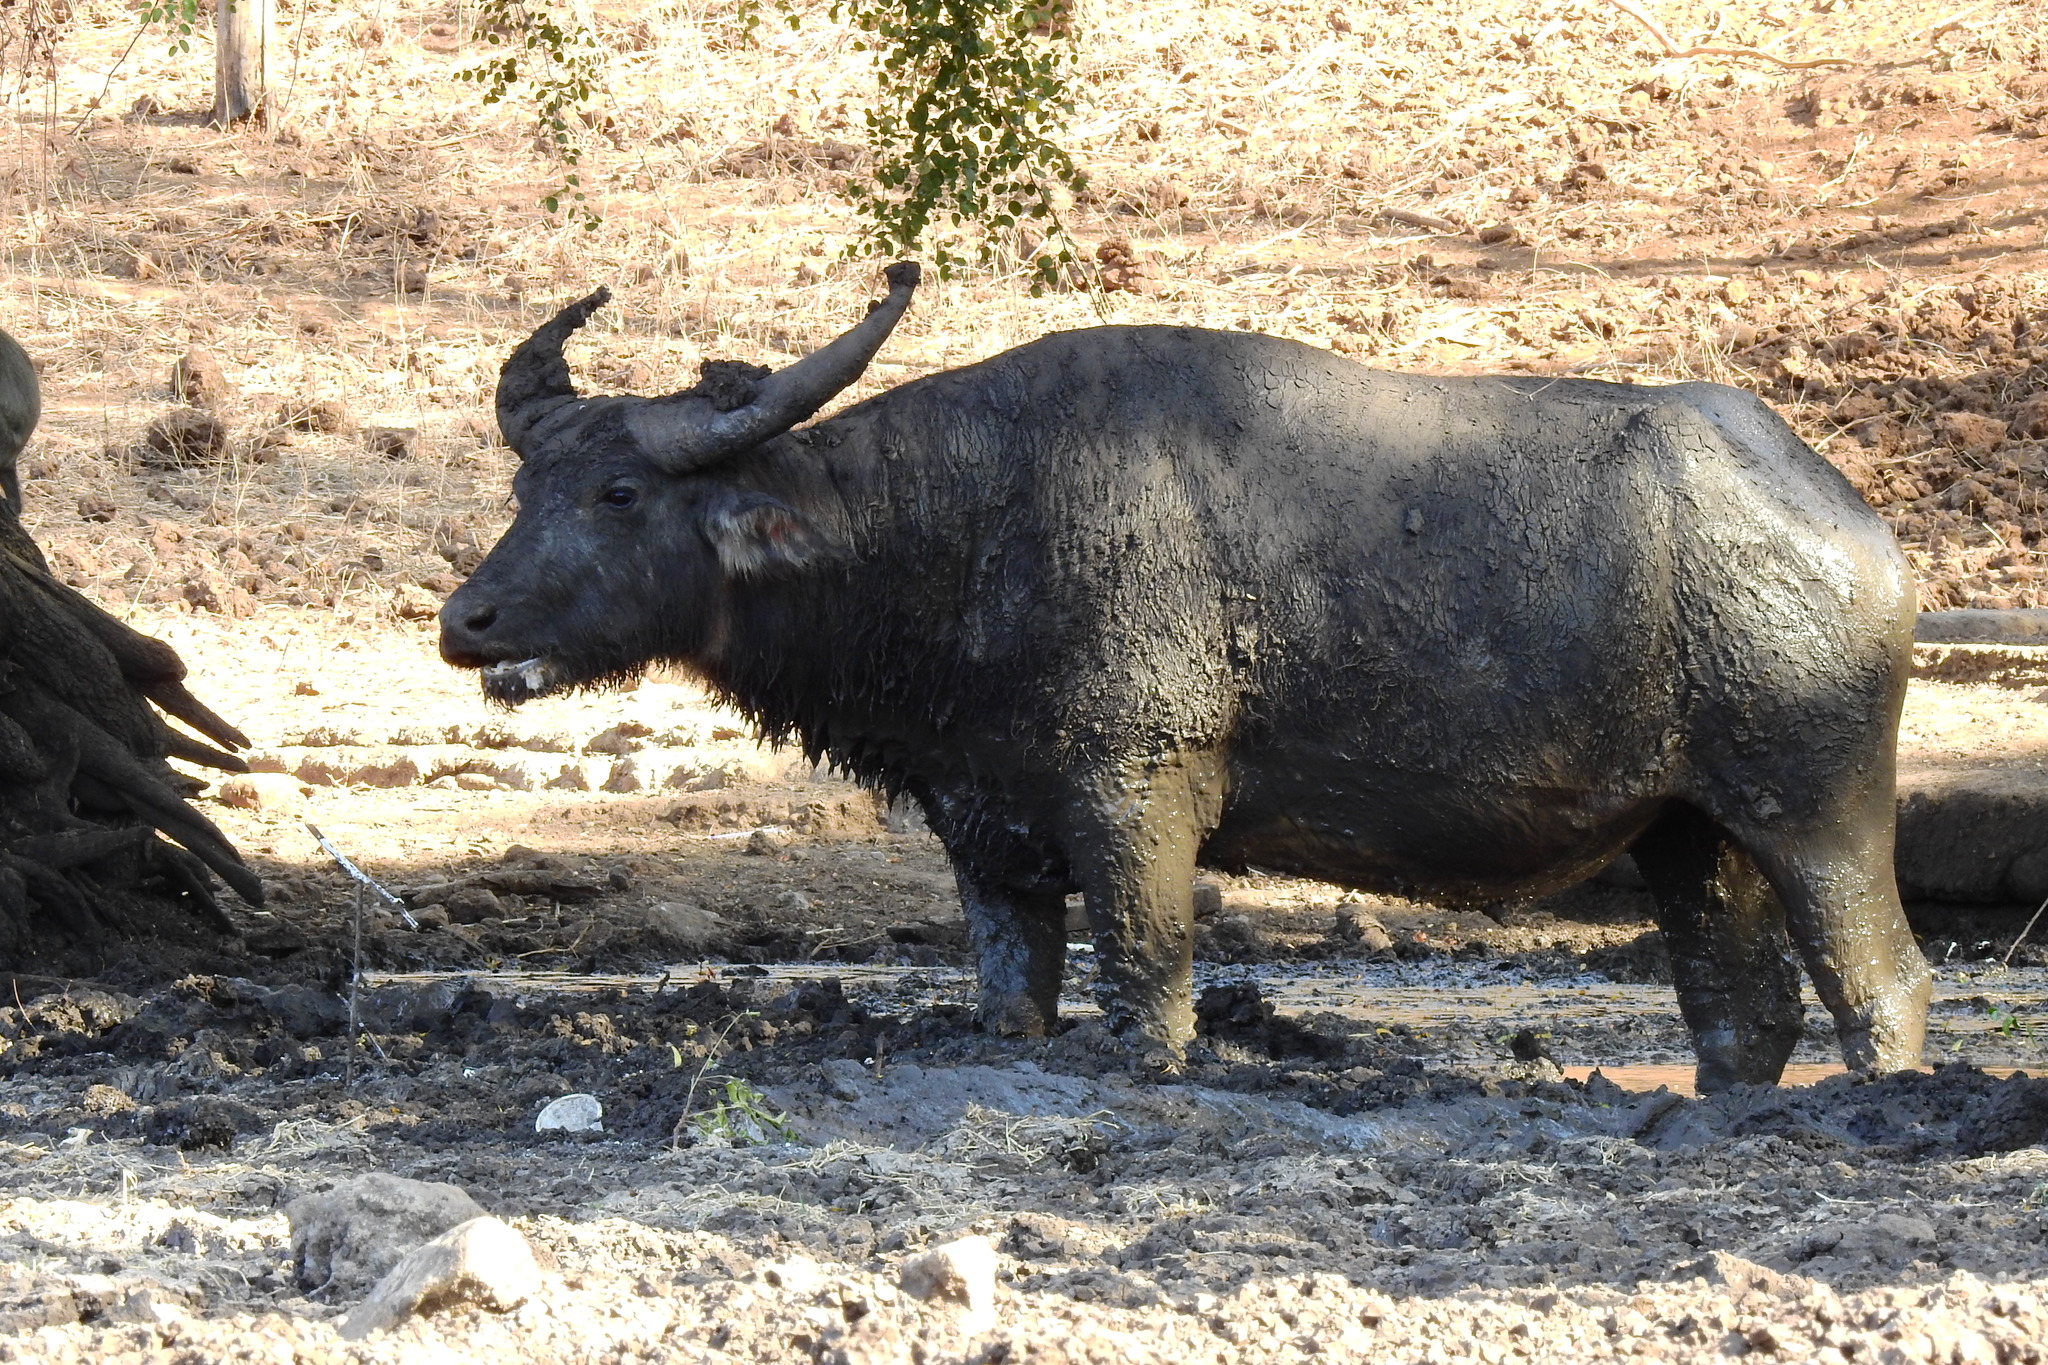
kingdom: Animalia
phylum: Chordata
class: Mammalia
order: Artiodactyla
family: Bovidae
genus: Bubalus
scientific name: Bubalus bubalis
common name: Water buffalo
